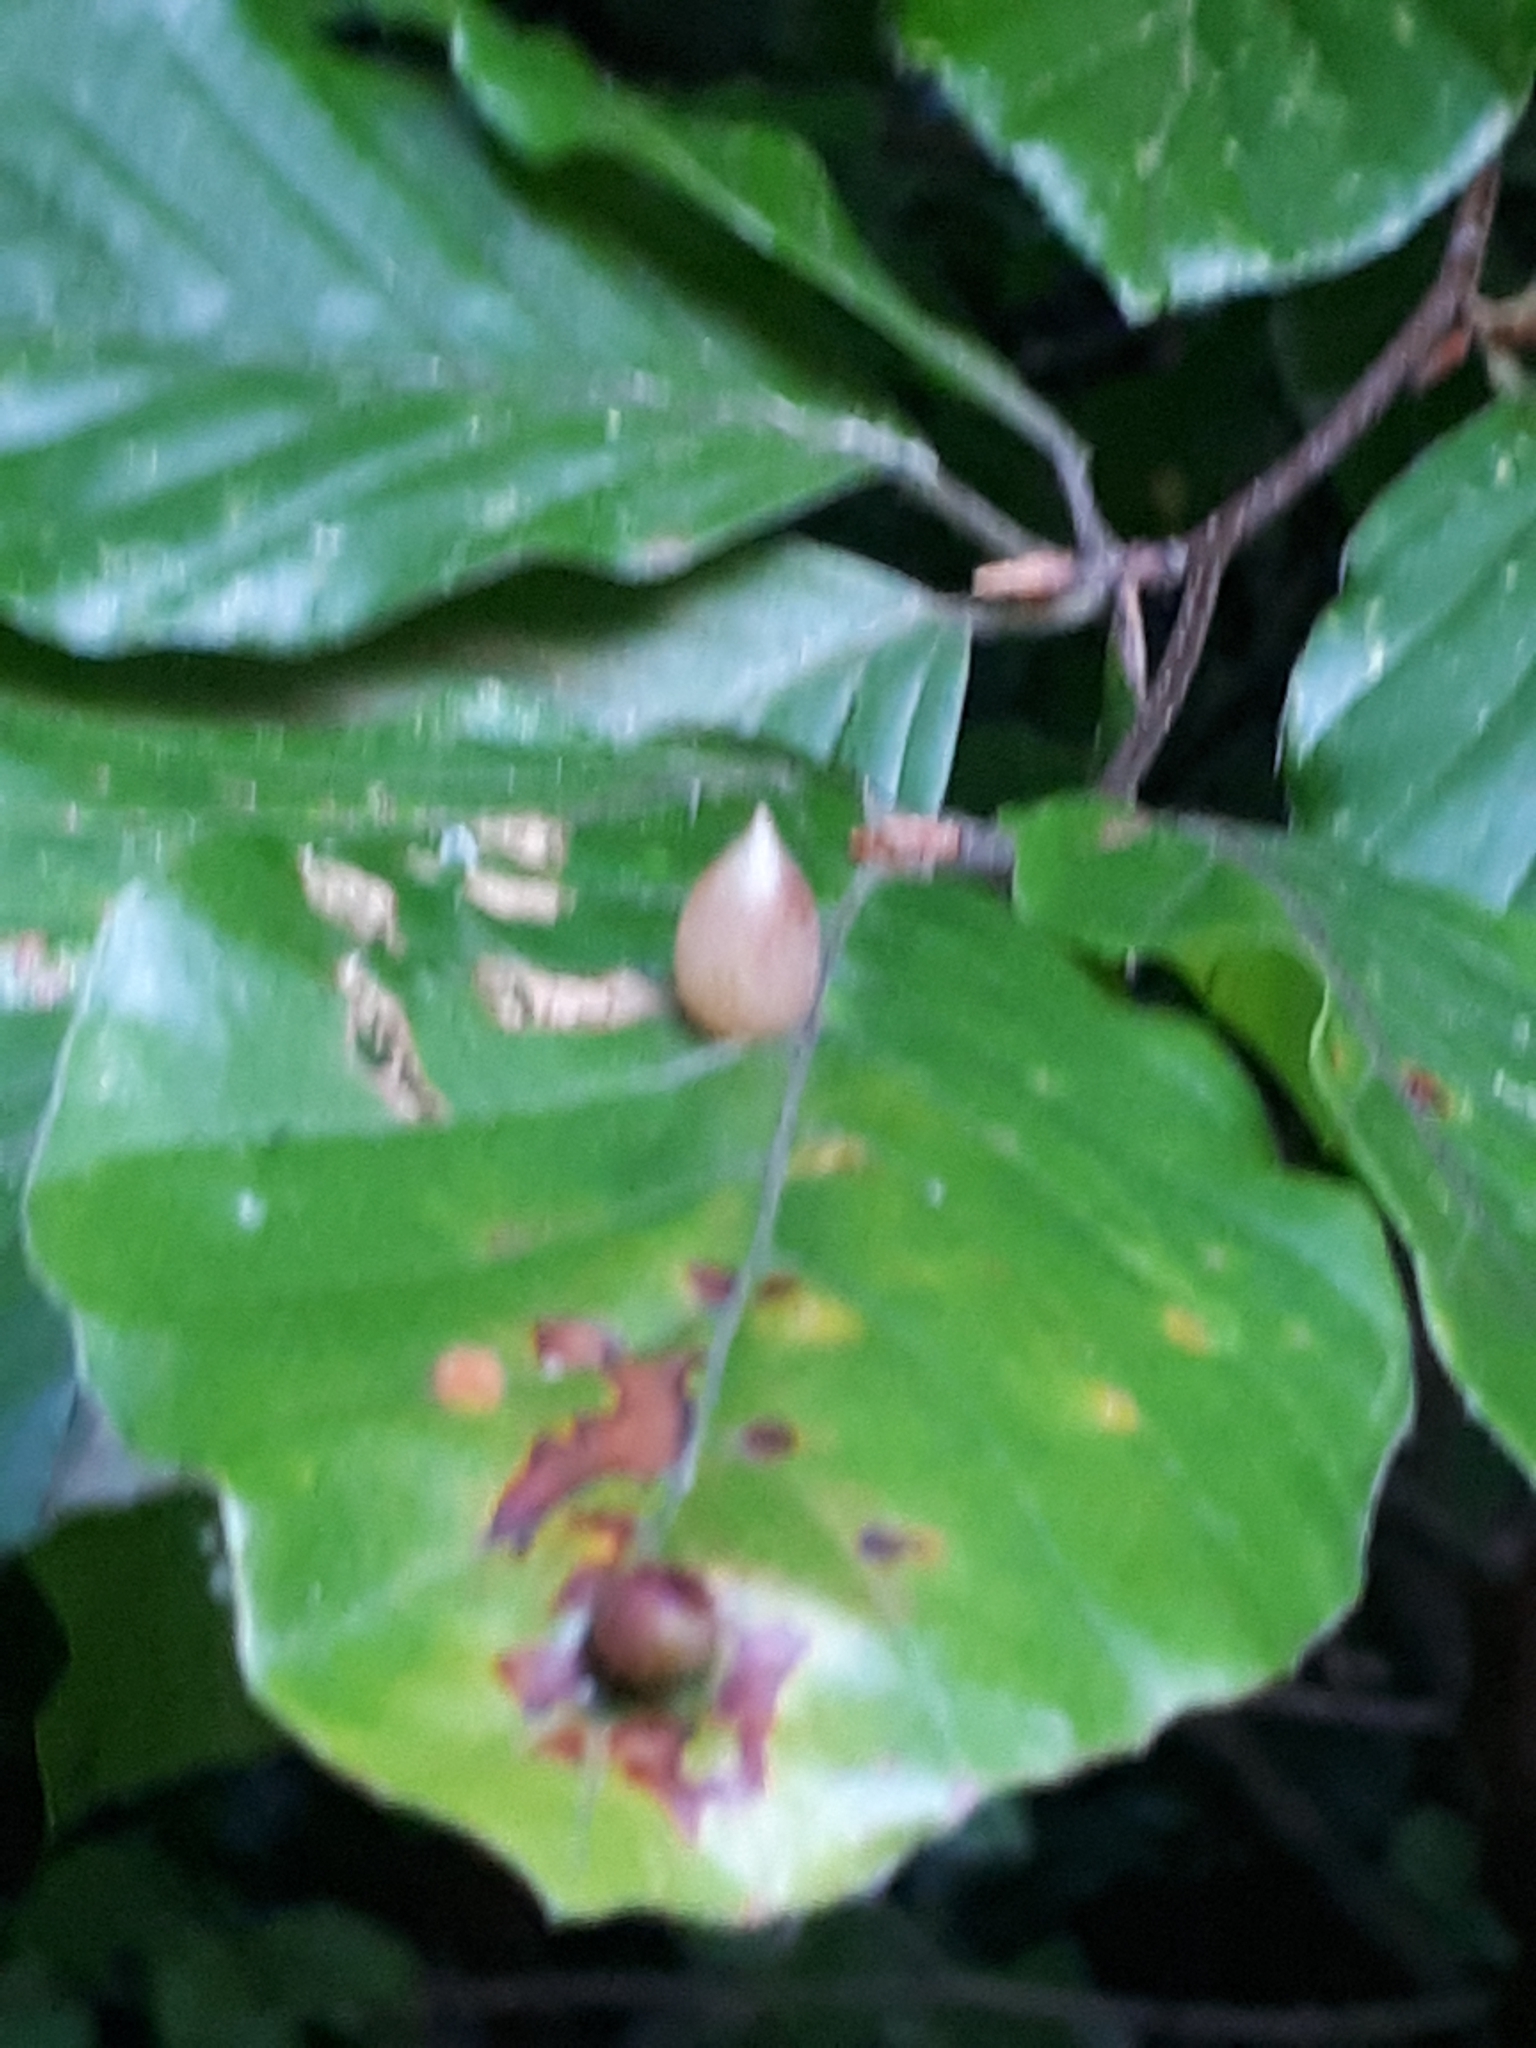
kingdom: Animalia
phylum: Arthropoda
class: Insecta
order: Diptera
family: Cecidomyiidae
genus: Mikiola
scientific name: Mikiola fagi
